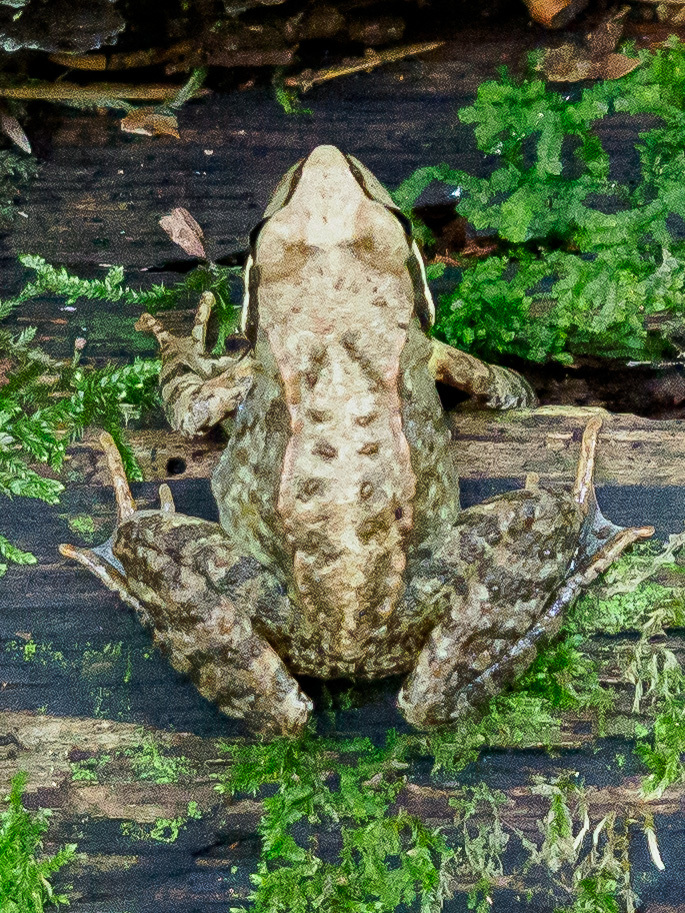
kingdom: Animalia
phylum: Chordata
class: Amphibia
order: Anura
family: Ranidae
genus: Rana
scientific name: Rana temporaria
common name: Common frog
